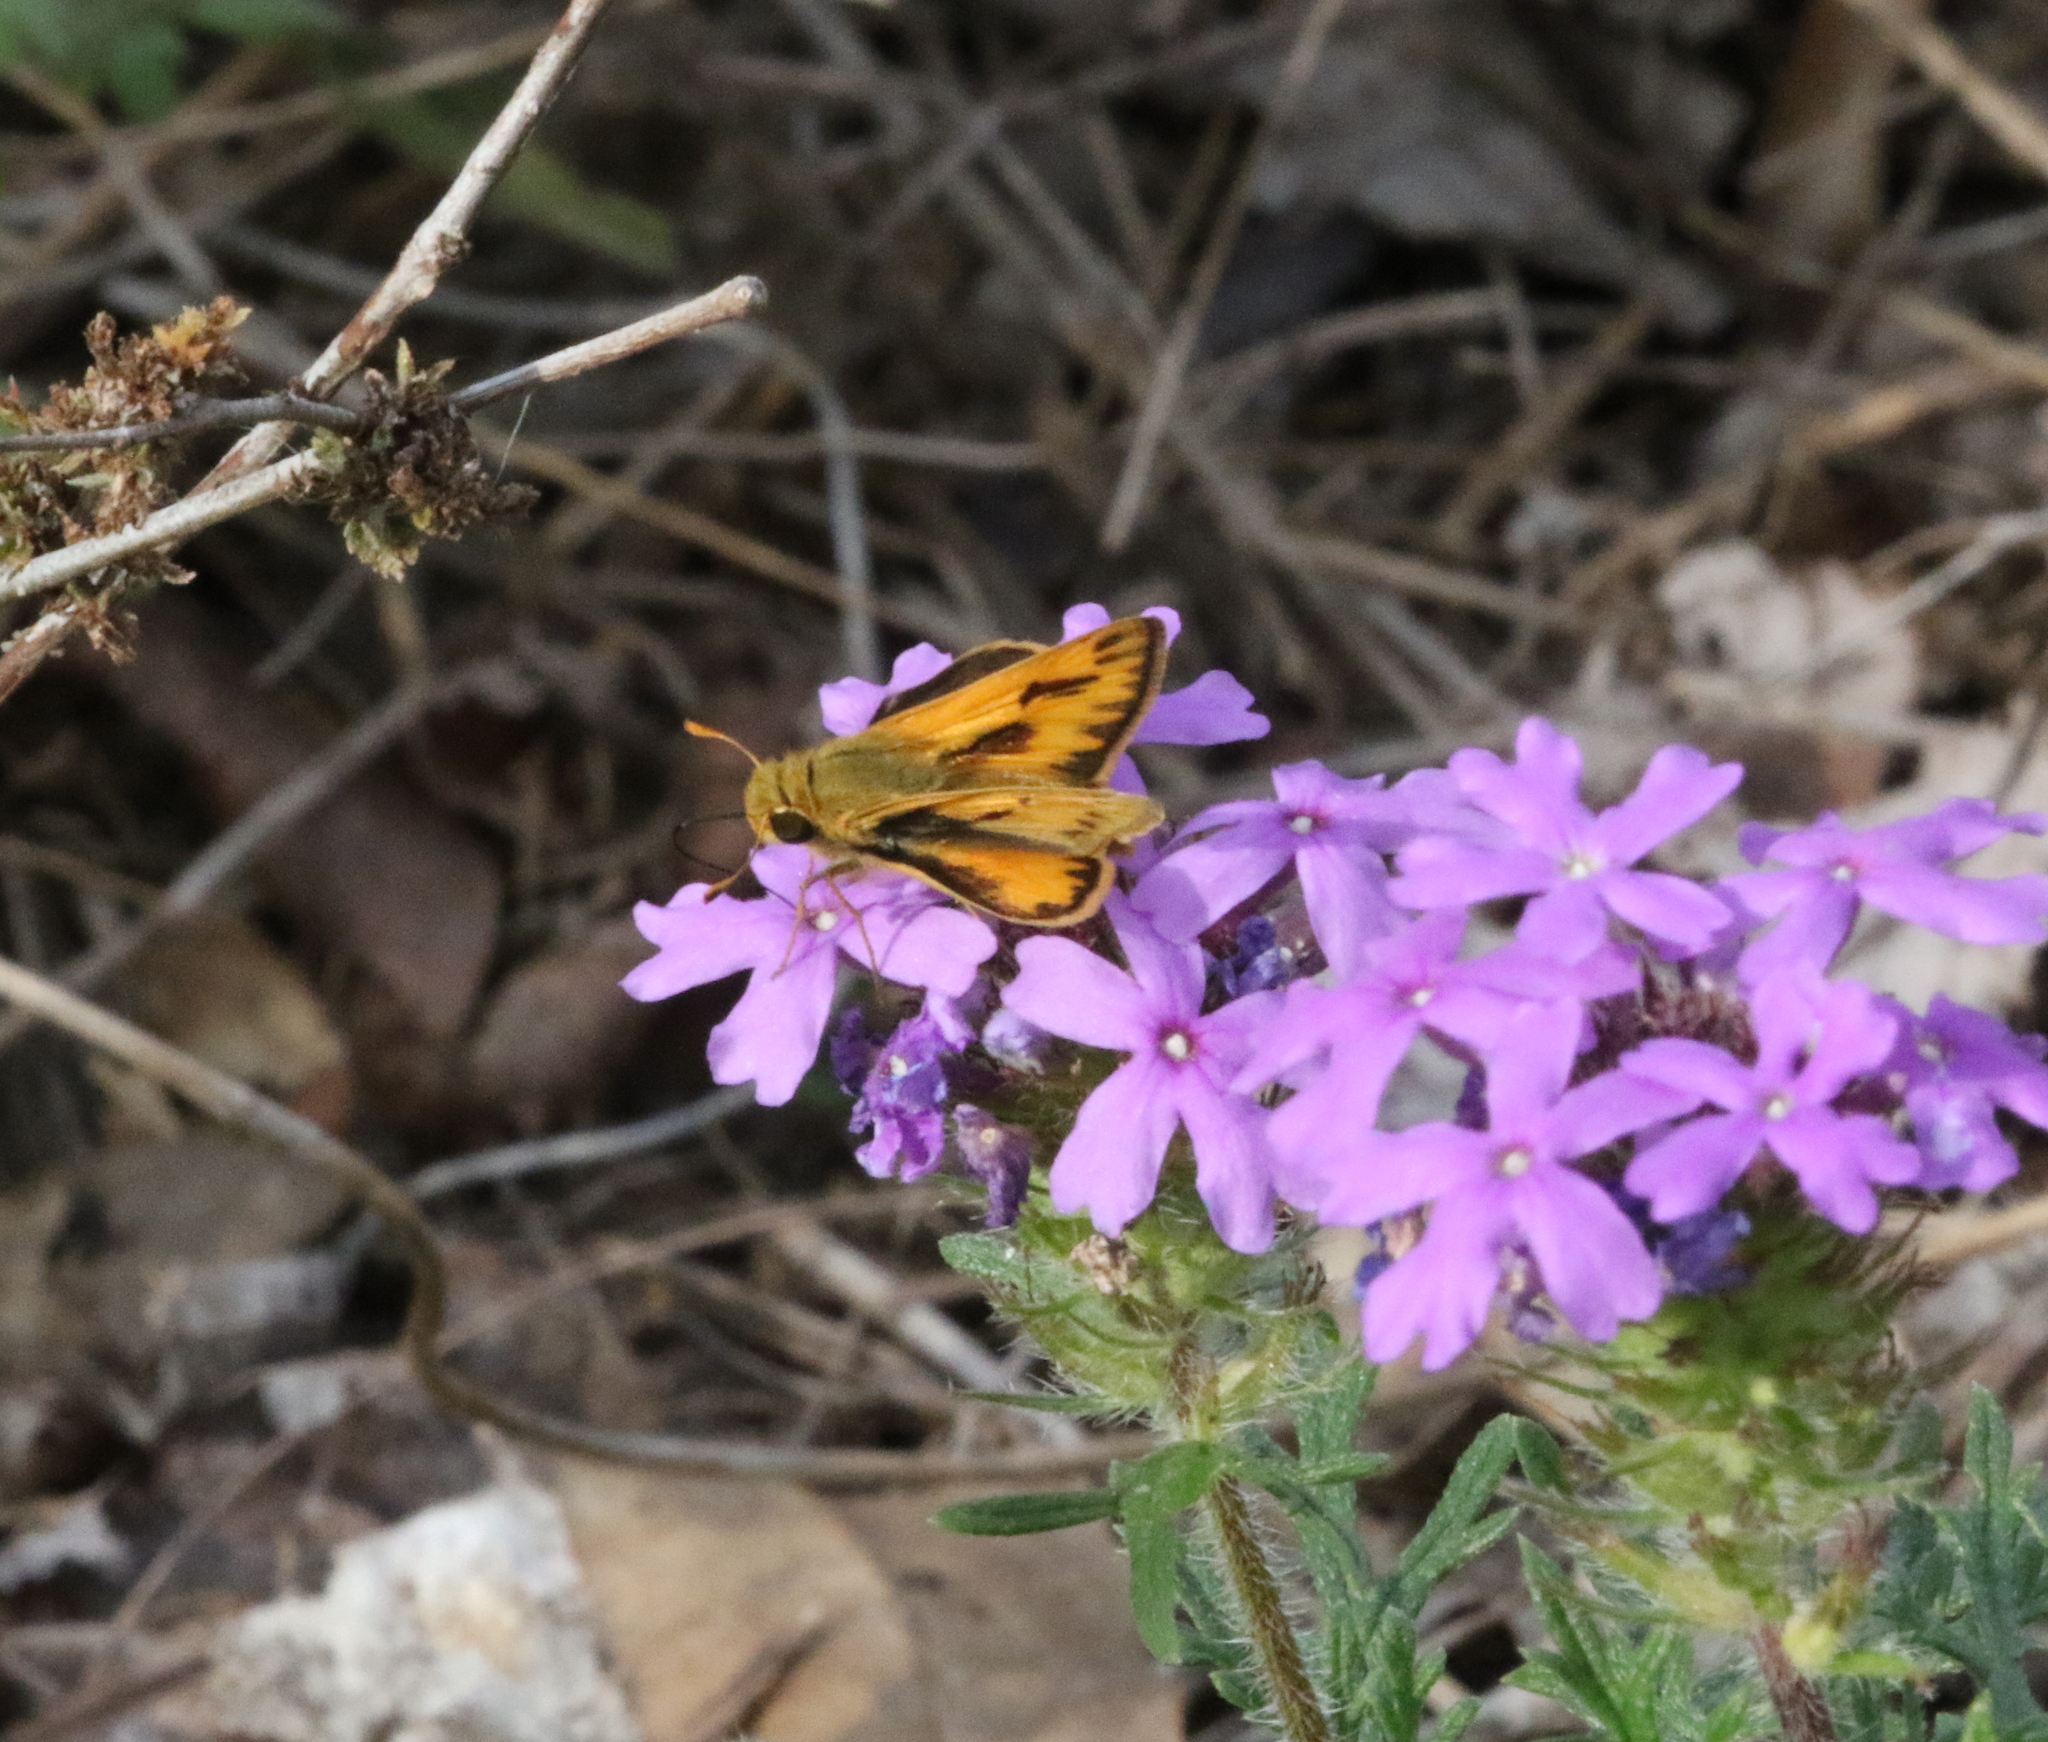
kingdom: Animalia
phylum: Arthropoda
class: Insecta
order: Lepidoptera
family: Hesperiidae
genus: Hylephila
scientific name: Hylephila phyleus
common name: Fiery skipper
